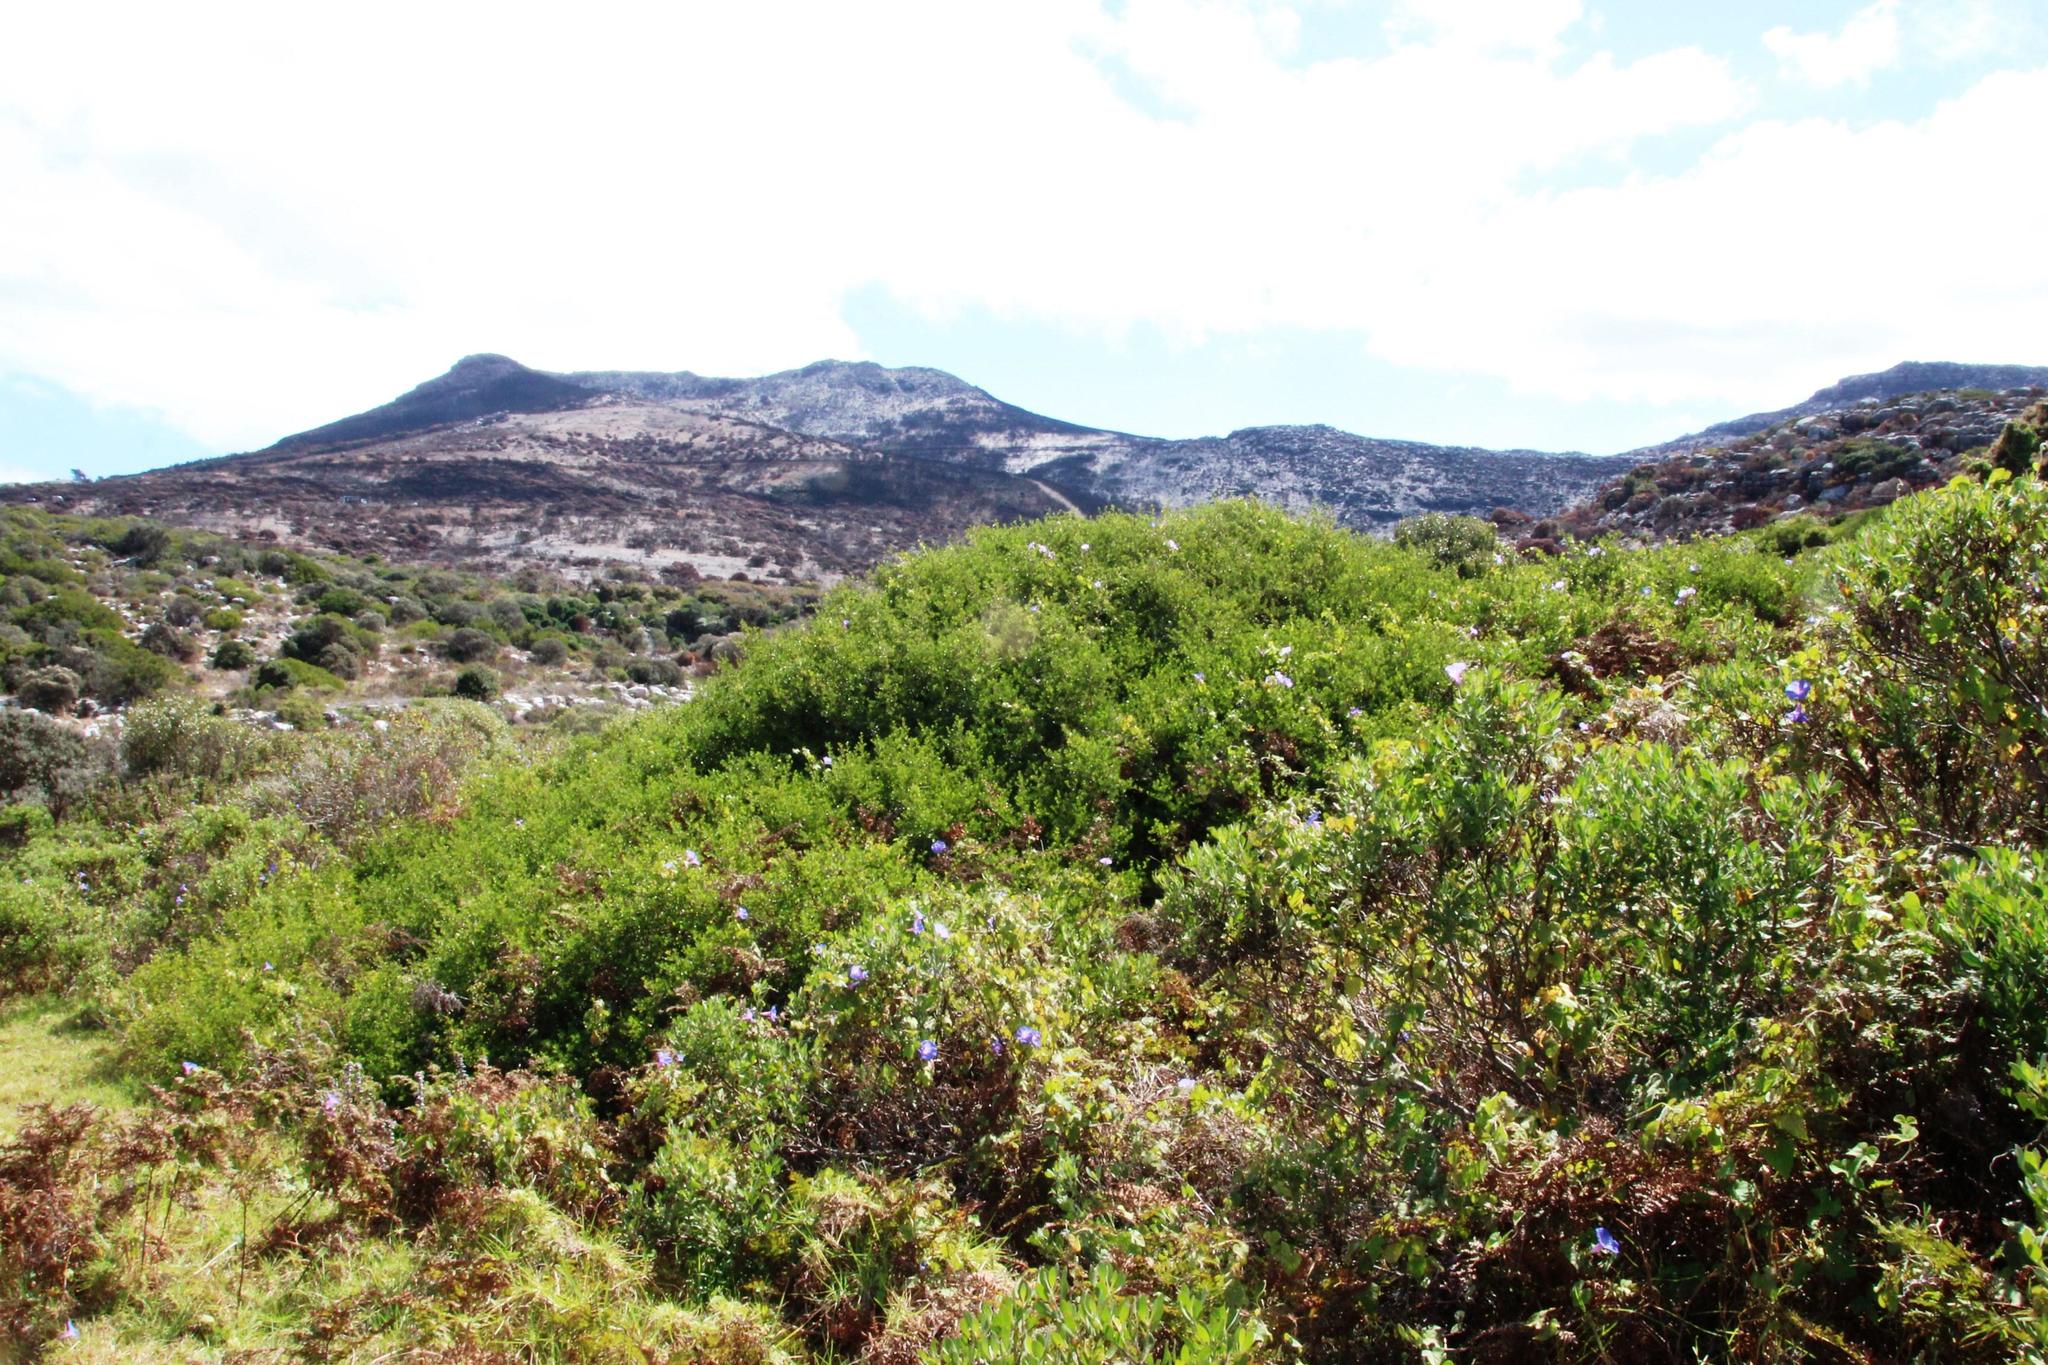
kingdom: Plantae
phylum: Tracheophyta
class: Magnoliopsida
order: Solanales
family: Convolvulaceae
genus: Ipomoea
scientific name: Ipomoea indica
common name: Blue dawnflower
